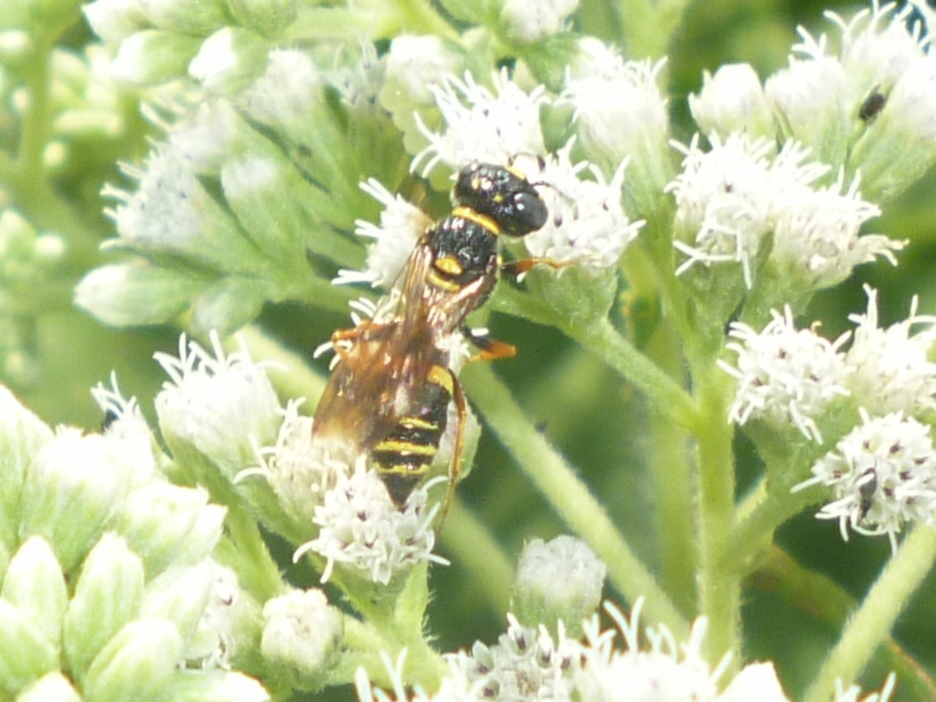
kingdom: Animalia
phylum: Arthropoda
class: Insecta
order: Hymenoptera
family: Crabronidae
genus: Philanthus
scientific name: Philanthus gibbosus
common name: Humped beewolf
